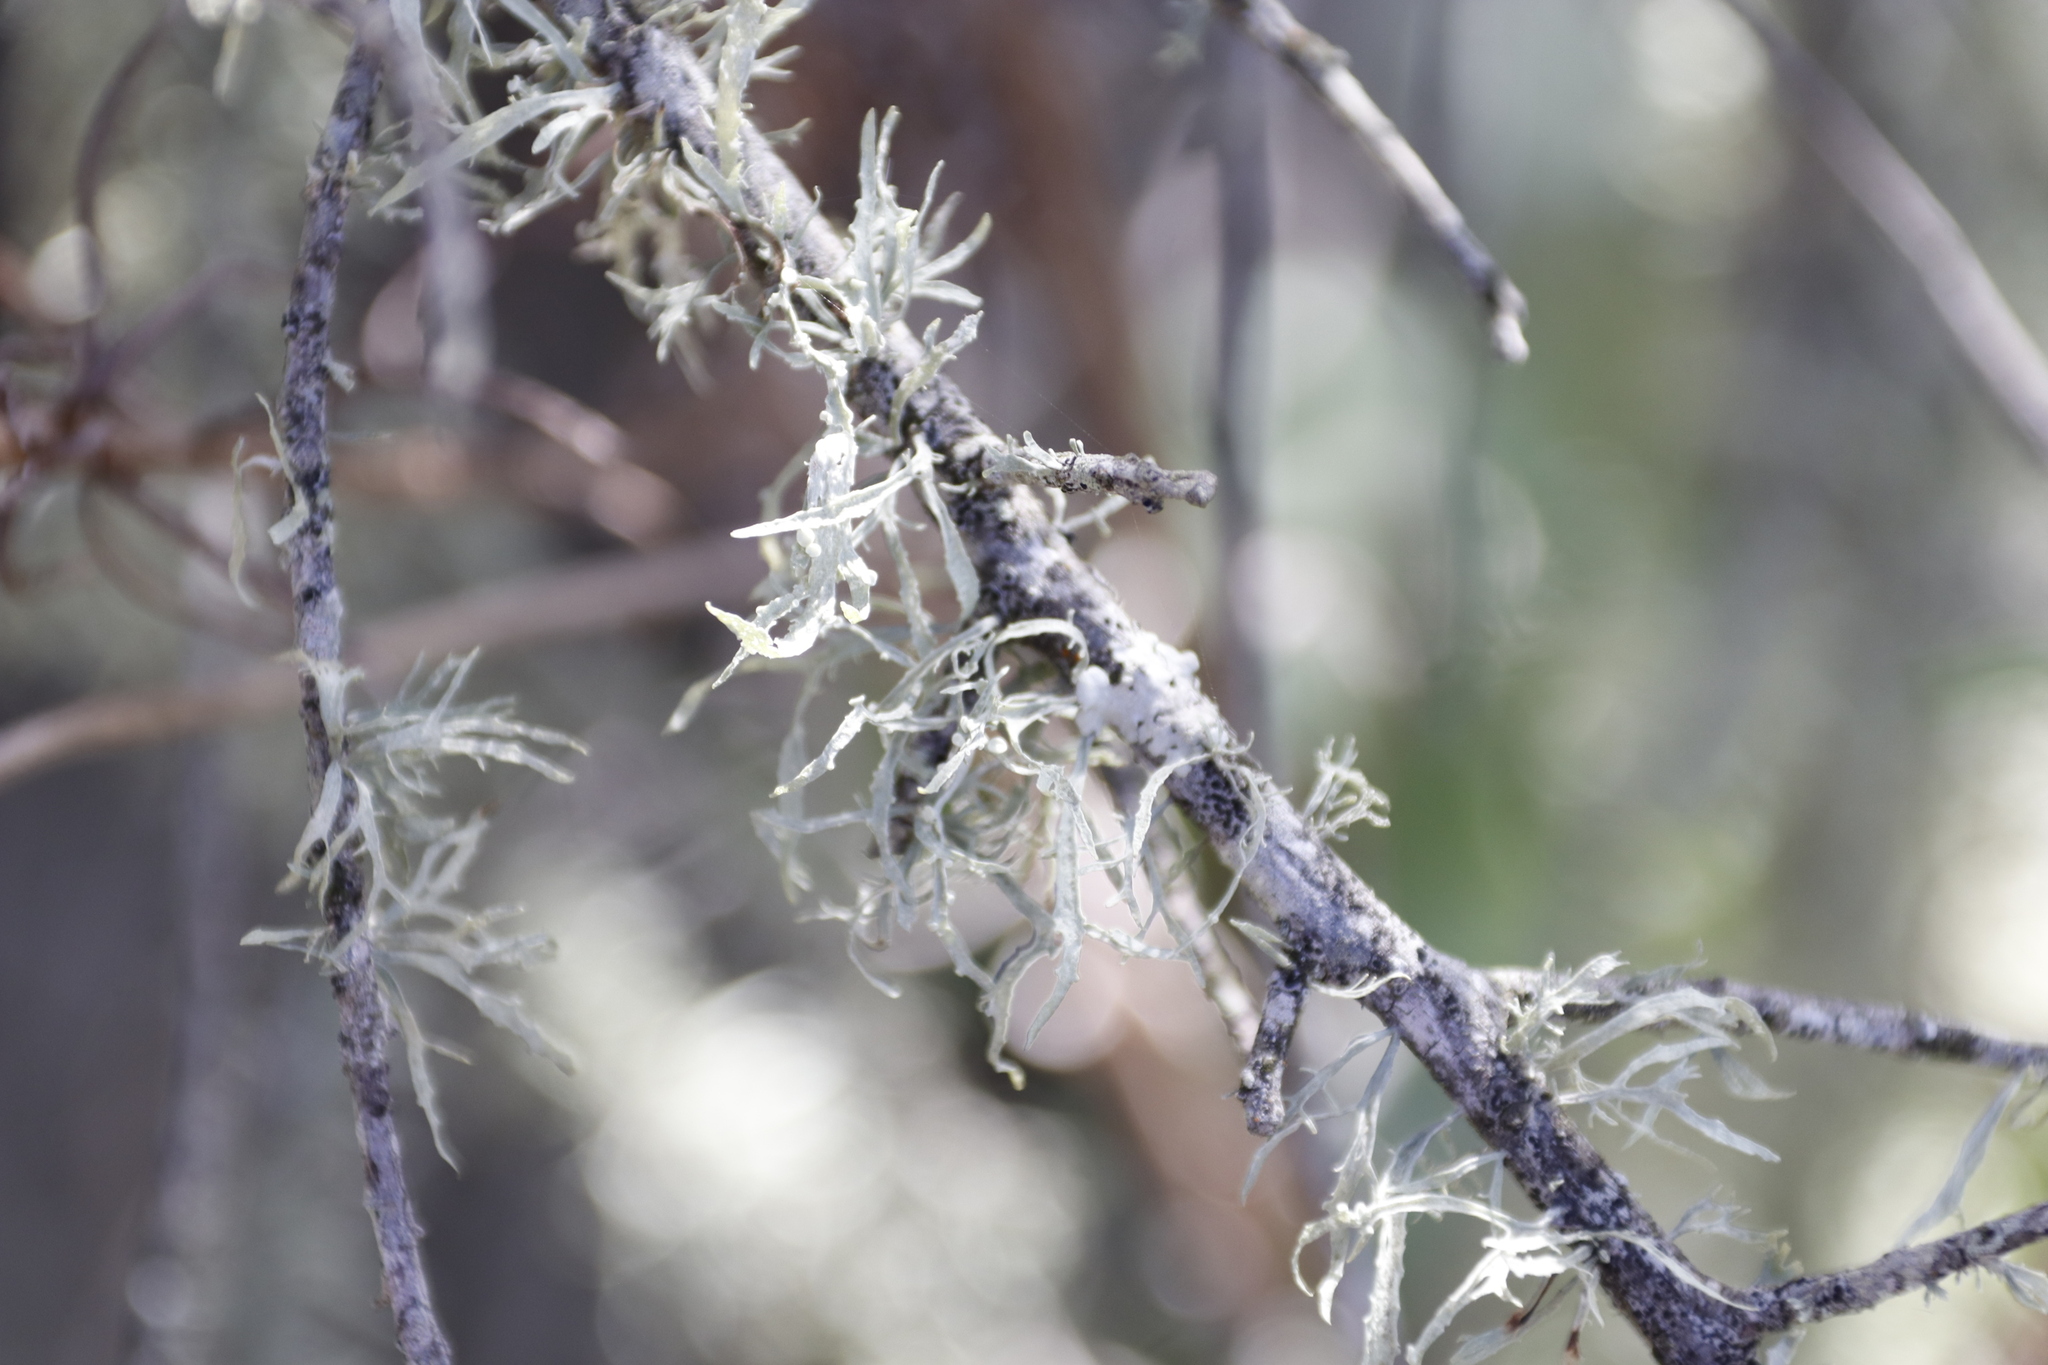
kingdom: Fungi
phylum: Ascomycota
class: Lecanoromycetes
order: Lecanorales
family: Ramalinaceae
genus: Ramalina
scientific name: Ramalina celastri
